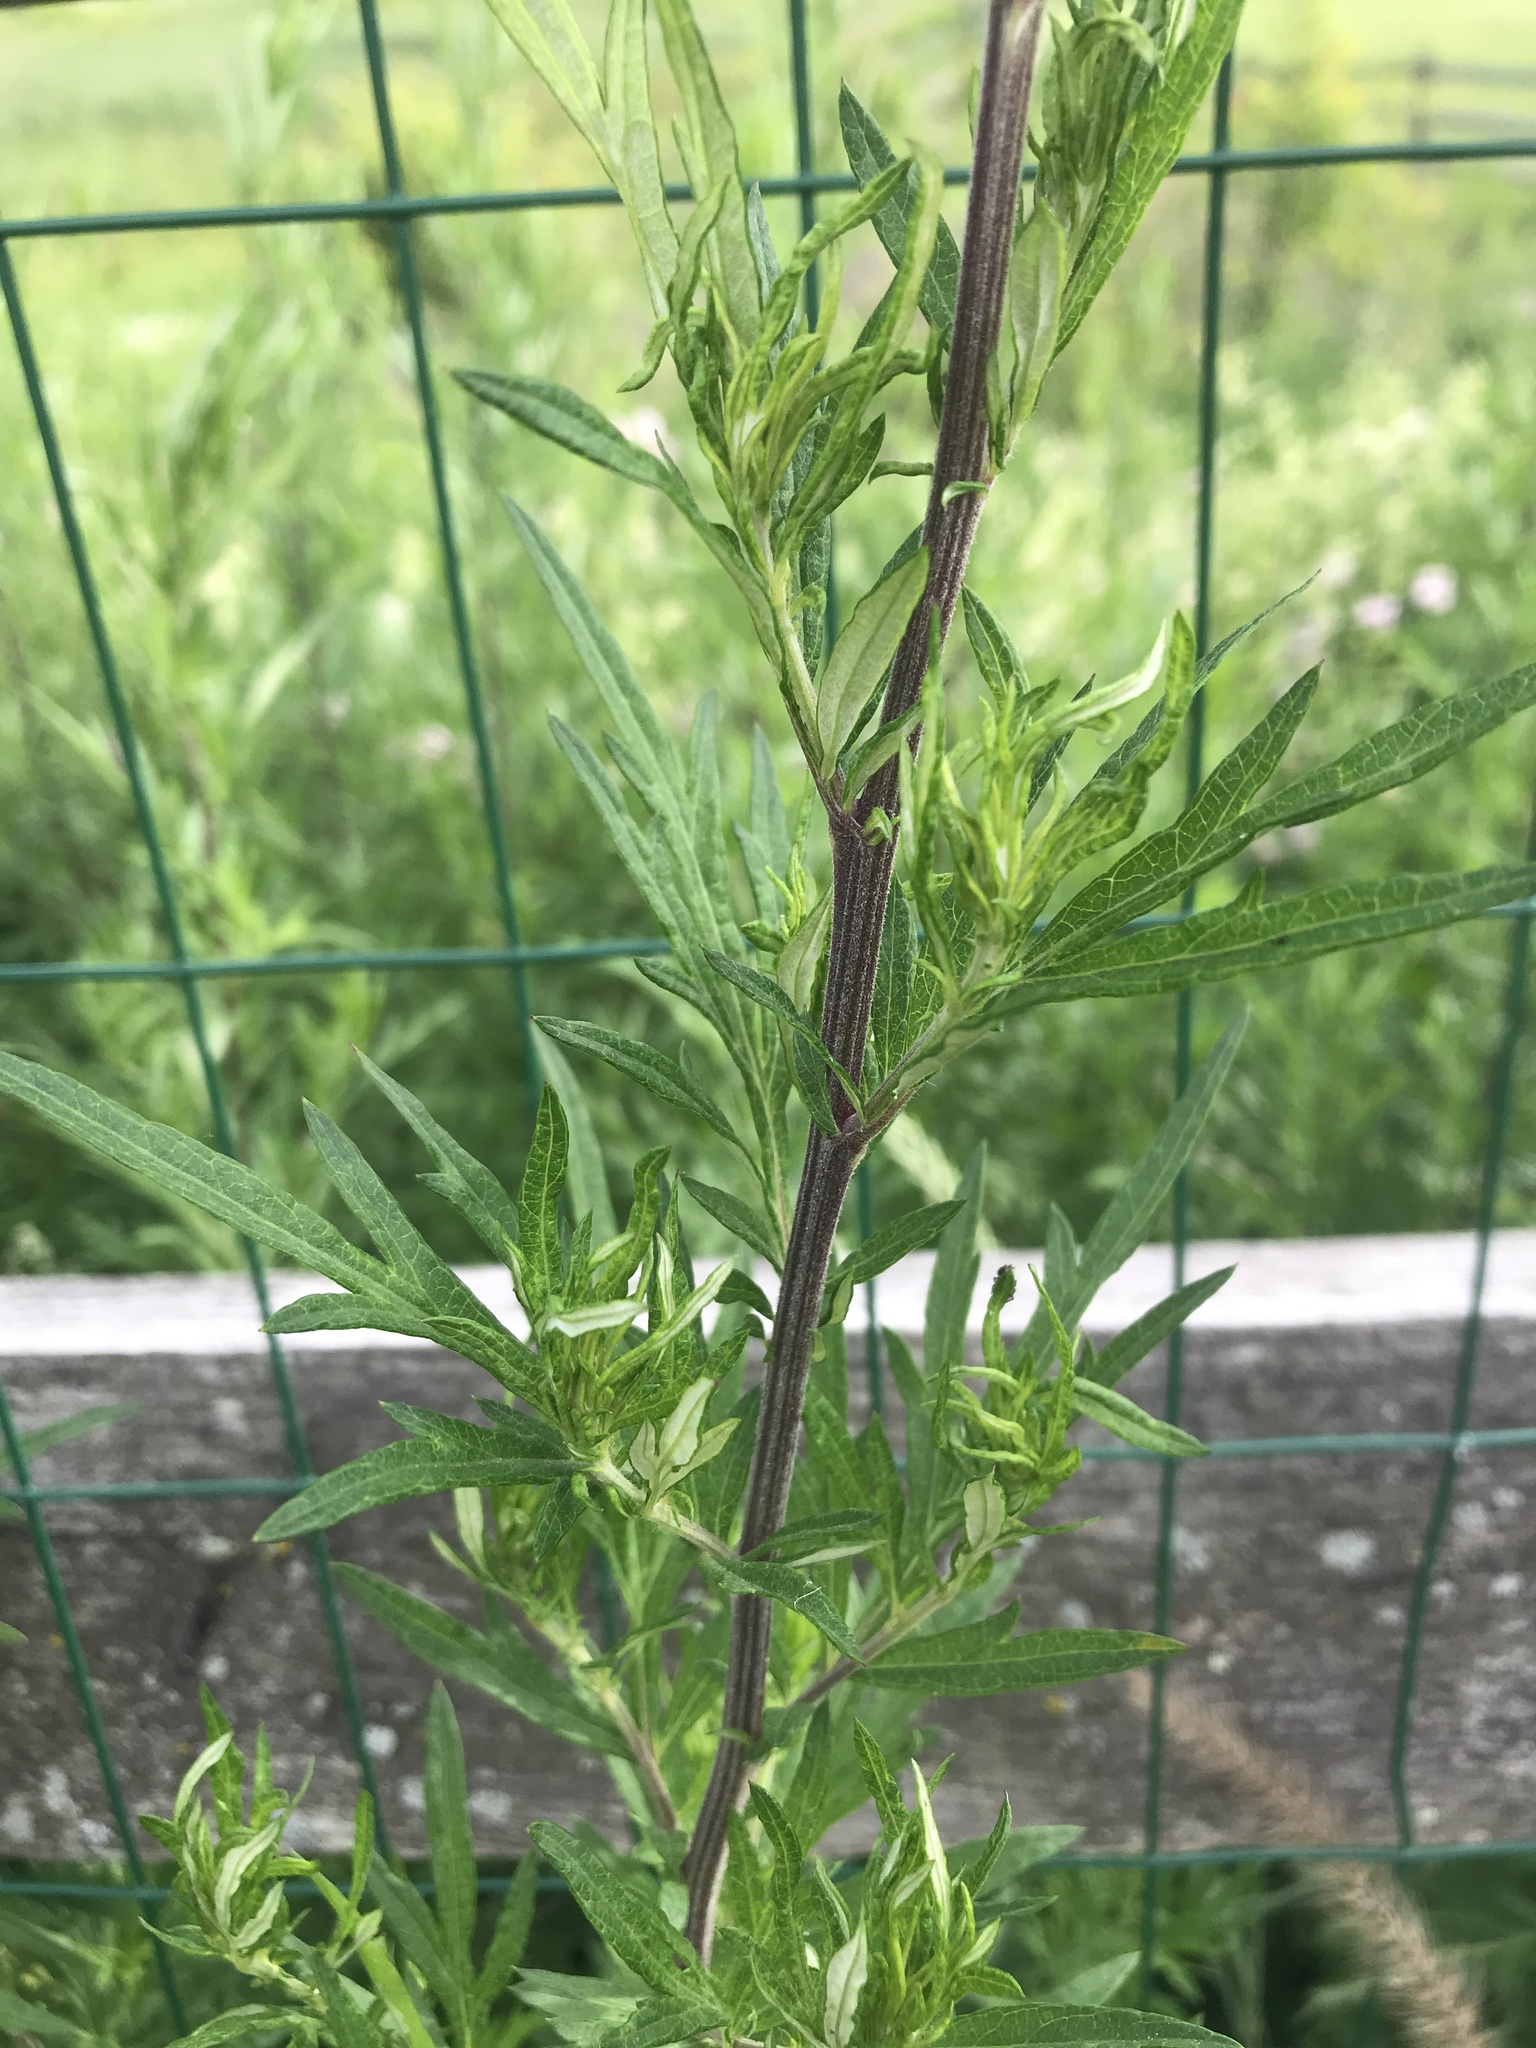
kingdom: Plantae
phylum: Tracheophyta
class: Magnoliopsida
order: Asterales
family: Asteraceae
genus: Artemisia
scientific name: Artemisia vulgaris
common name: Mugwort
